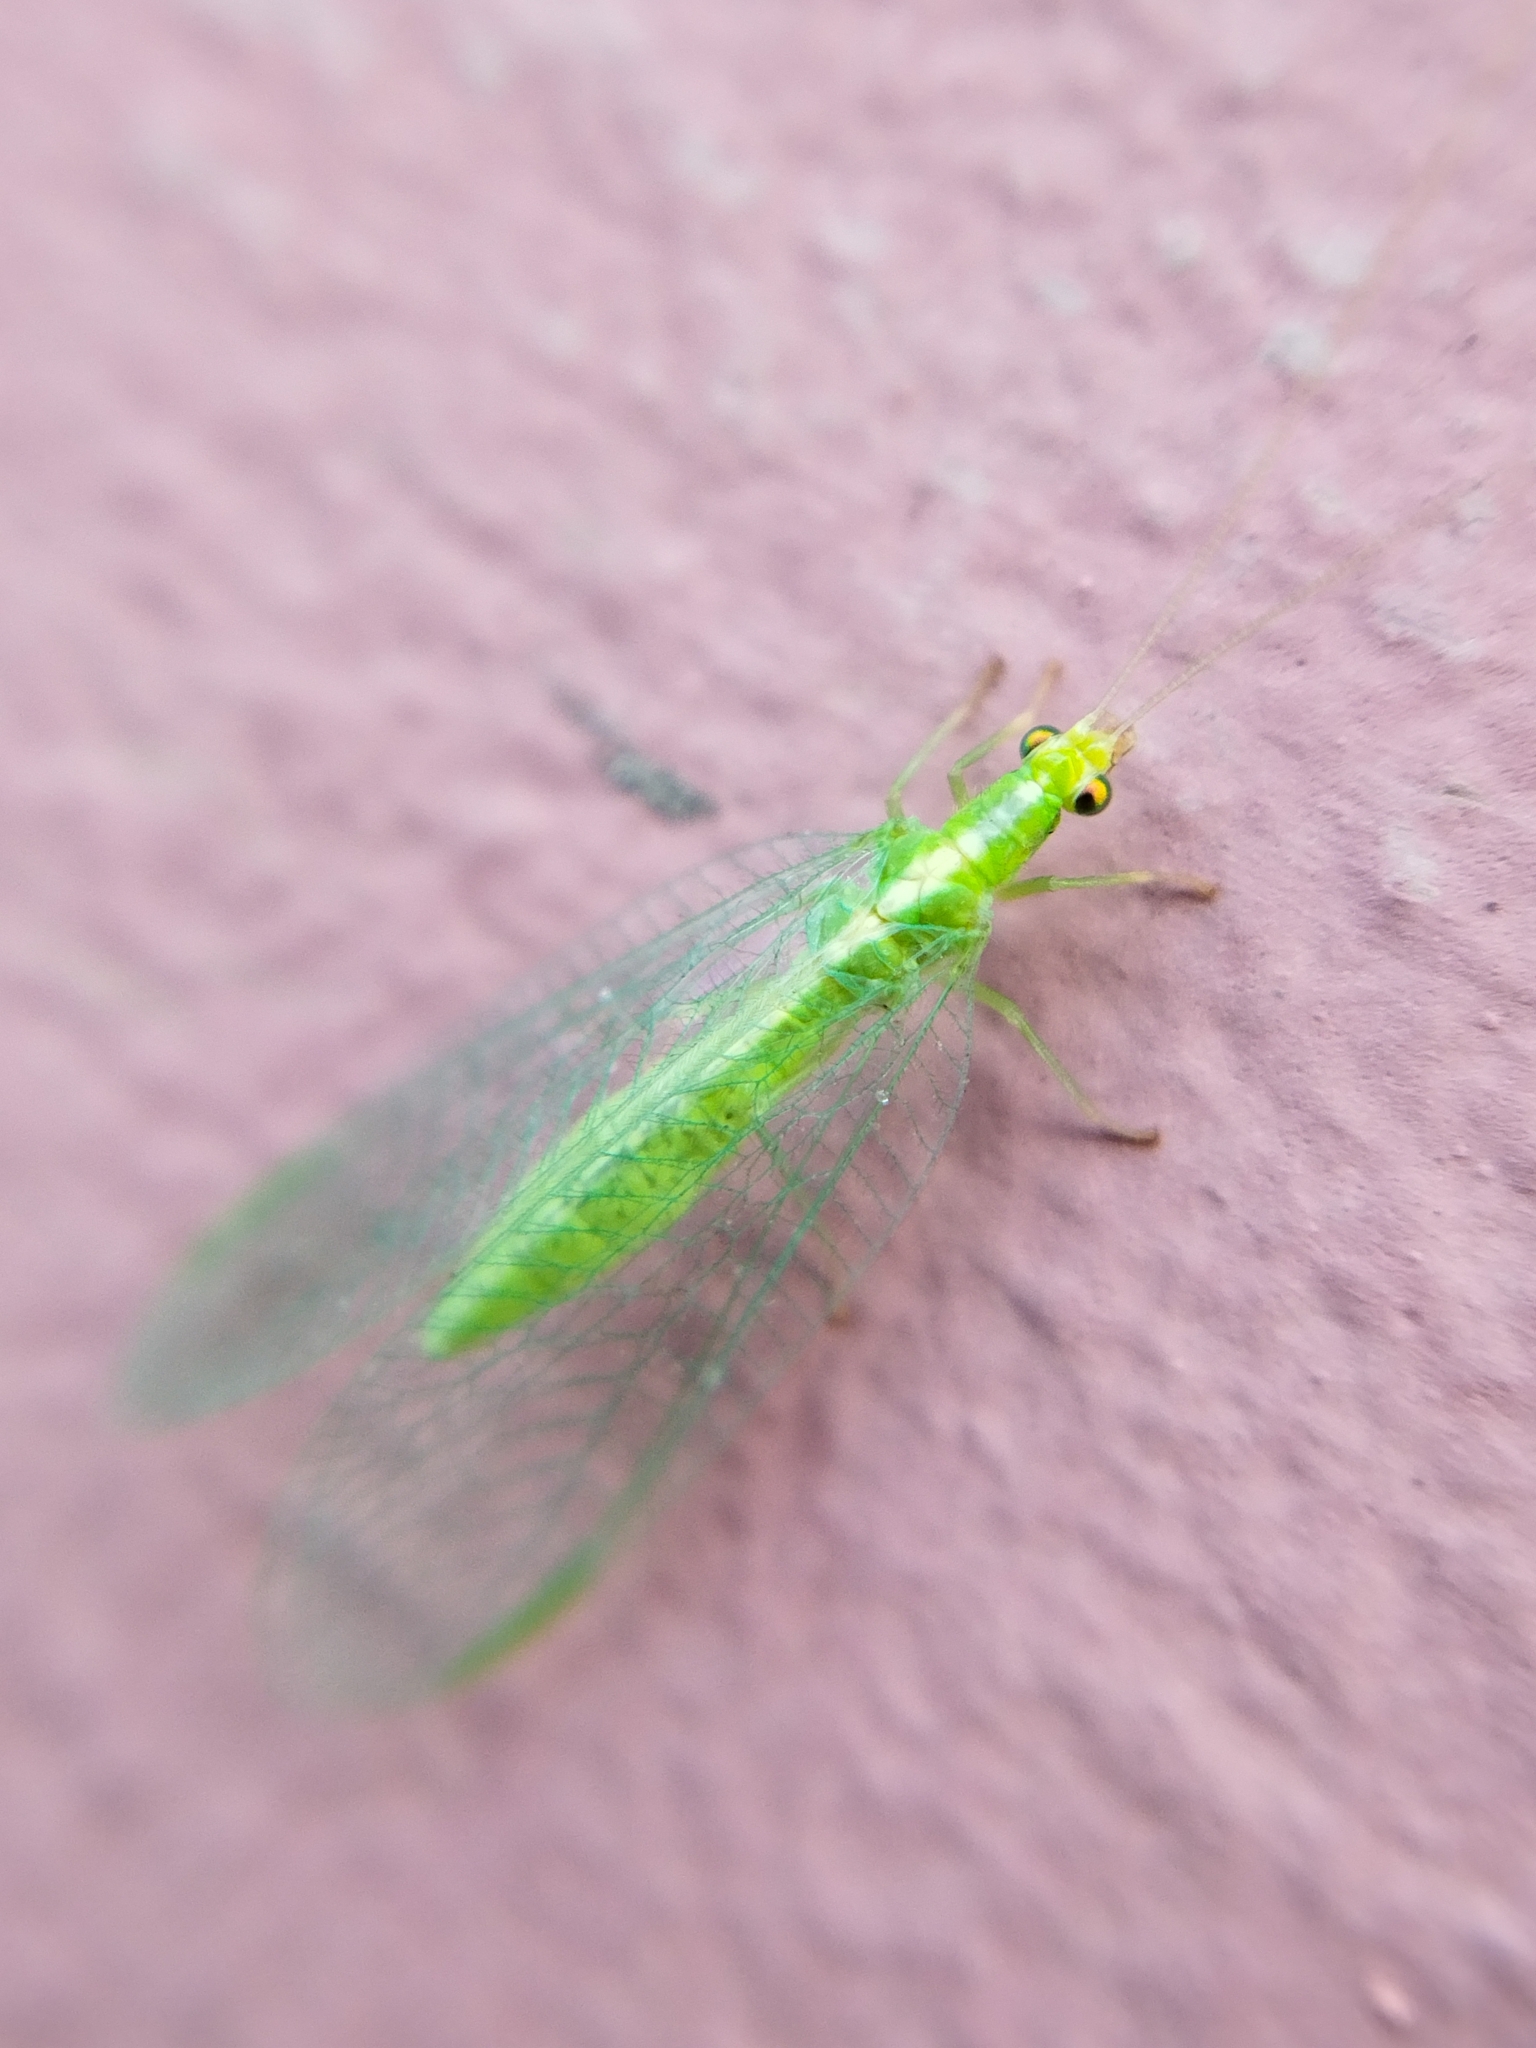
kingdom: Animalia
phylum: Arthropoda
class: Insecta
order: Neuroptera
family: Chrysopidae
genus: Chrysoperla
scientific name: Chrysoperla
